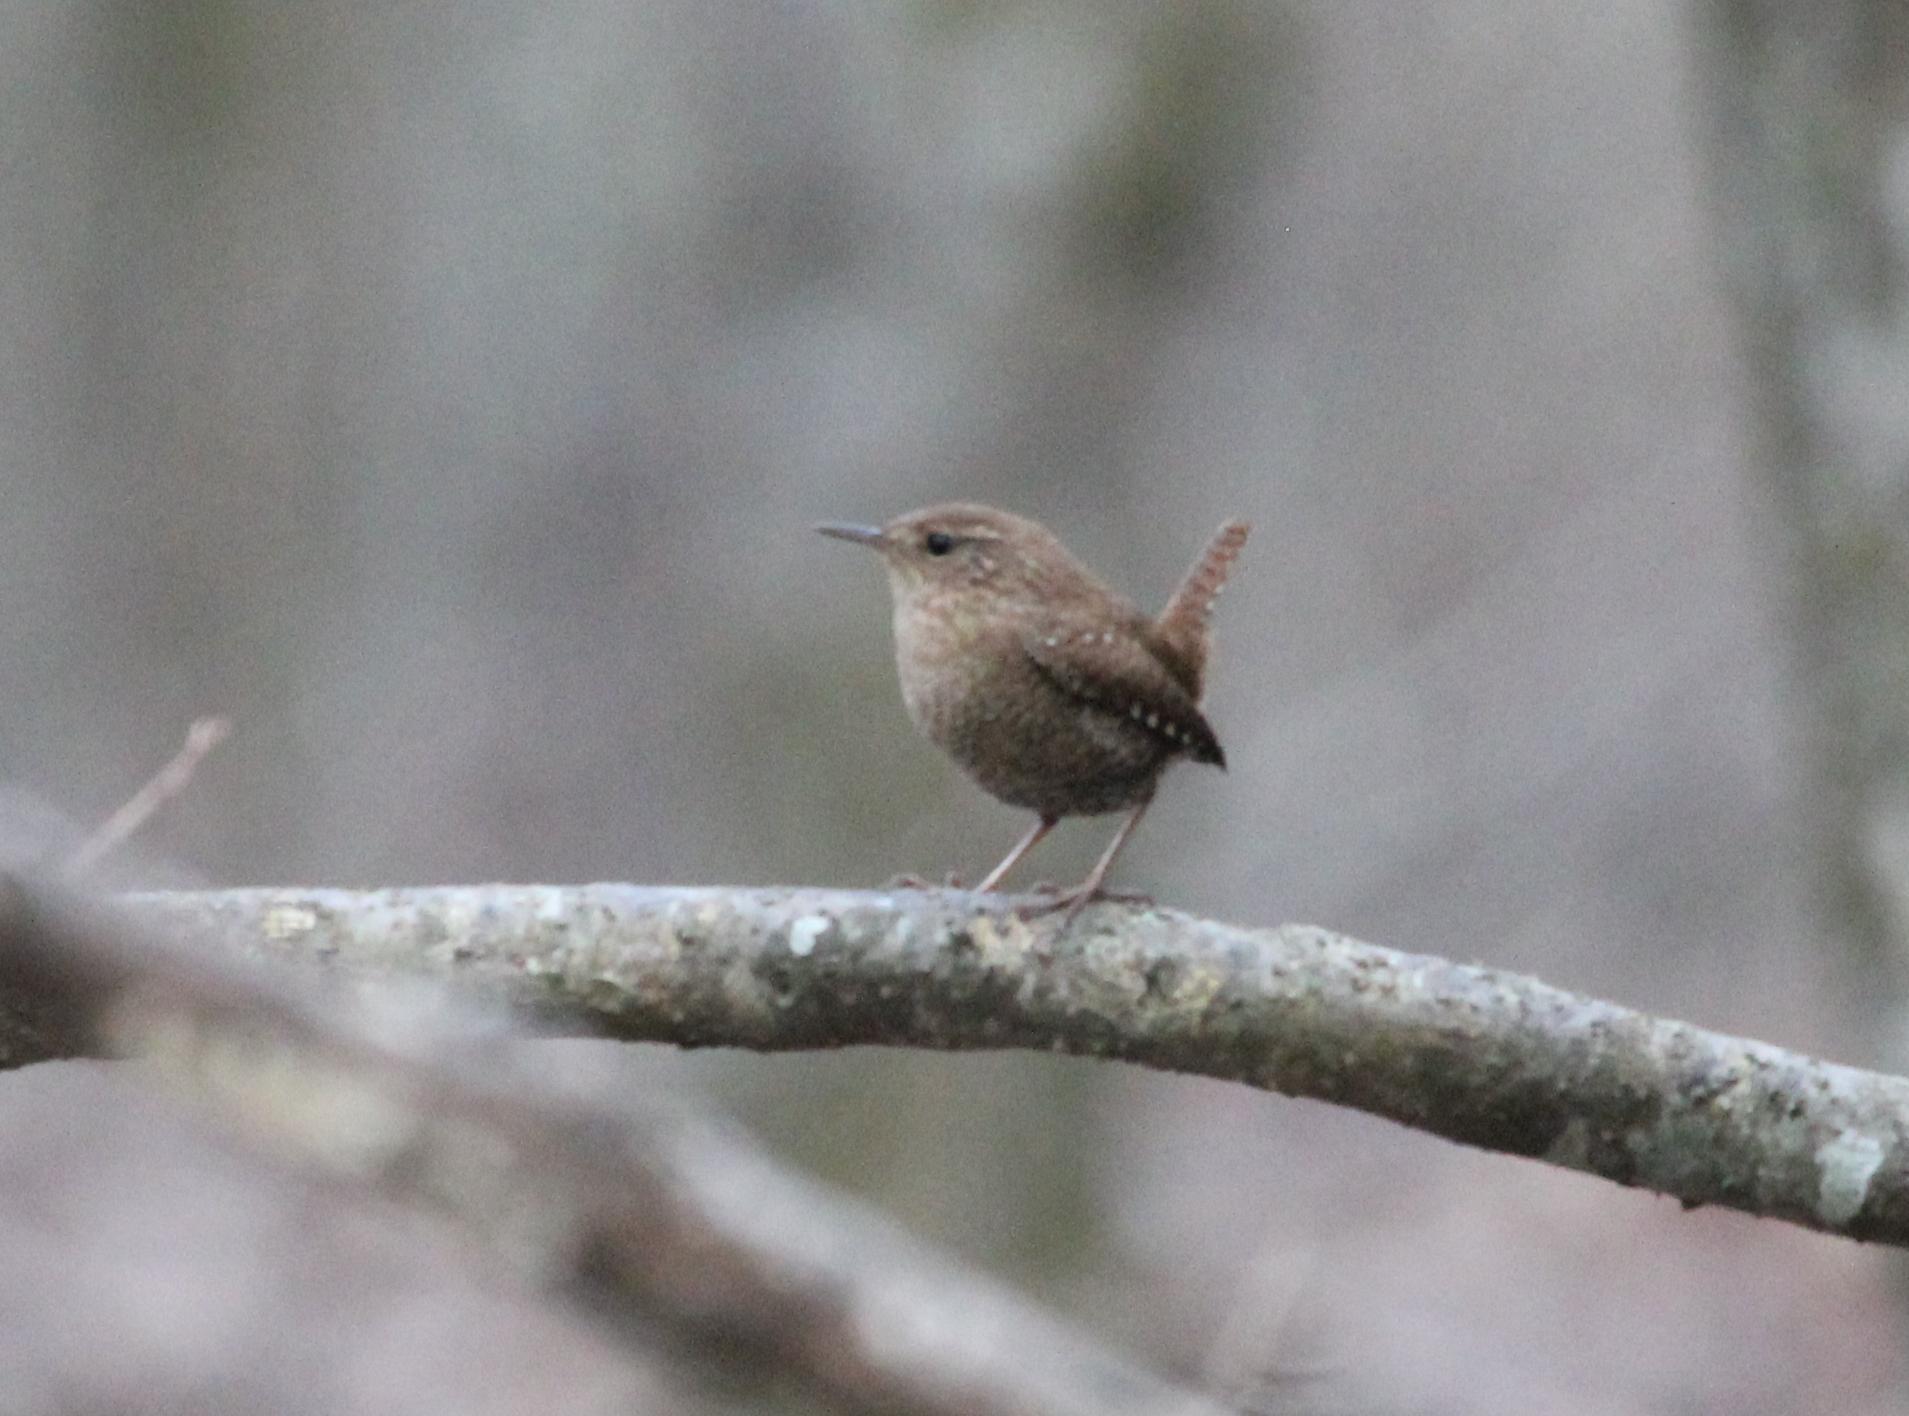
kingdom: Animalia
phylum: Chordata
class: Aves
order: Passeriformes
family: Troglodytidae
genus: Troglodytes
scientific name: Troglodytes hiemalis
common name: Winter wren
